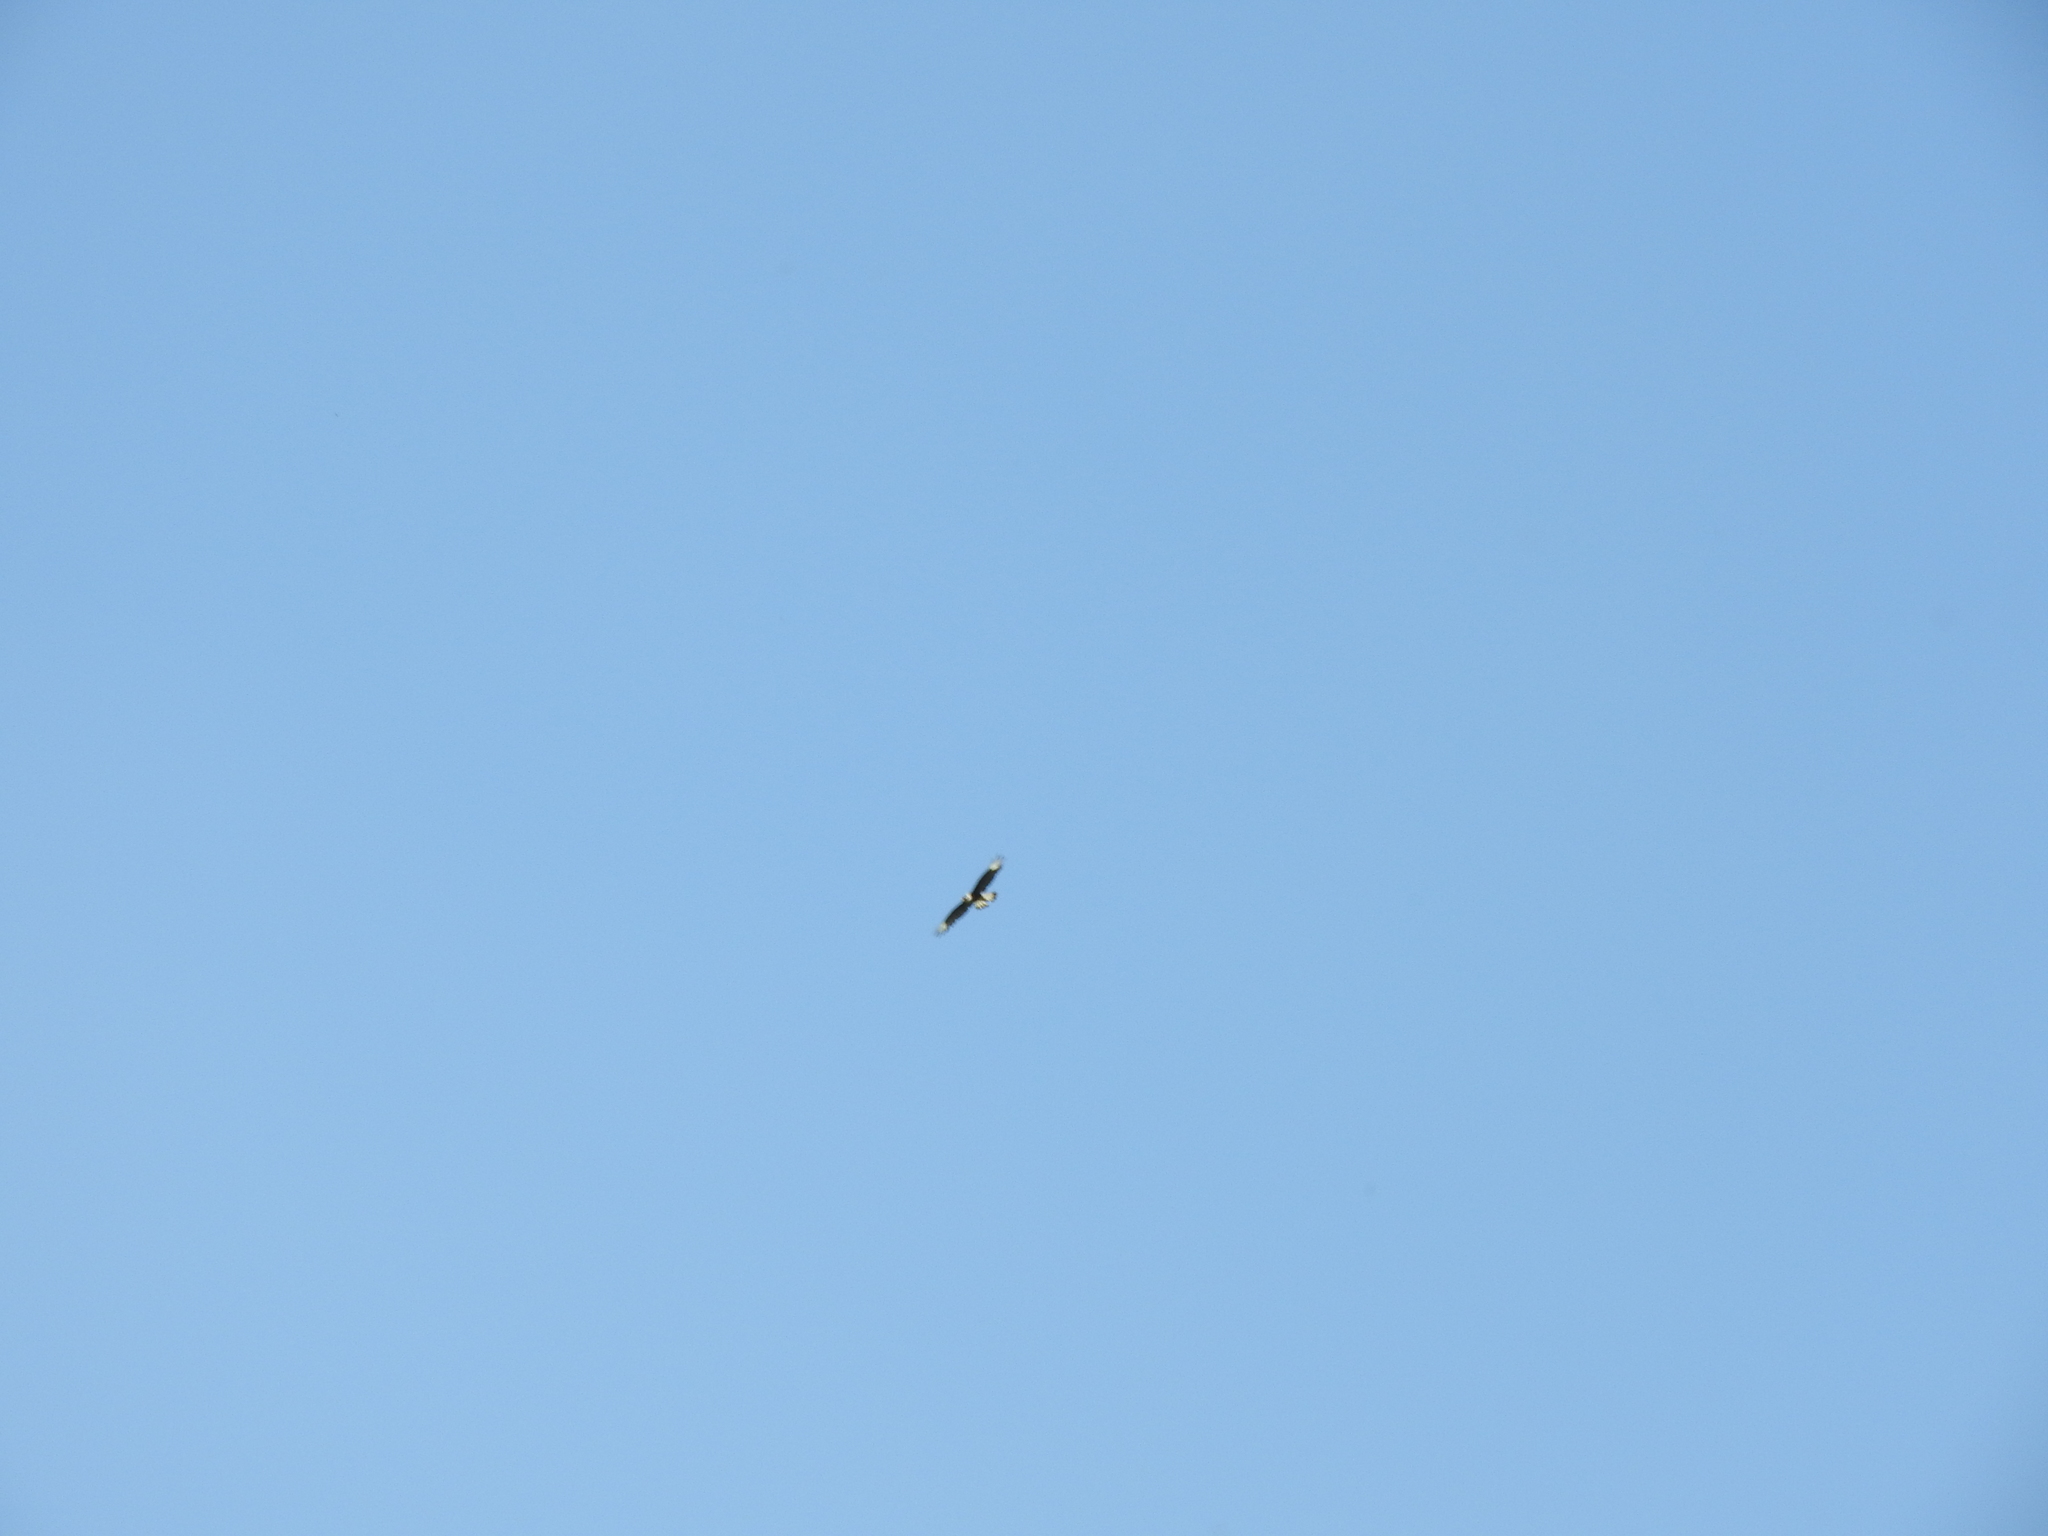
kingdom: Animalia
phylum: Chordata
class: Aves
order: Falconiformes
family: Falconidae
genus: Caracara
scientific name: Caracara plancus
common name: Southern caracara
